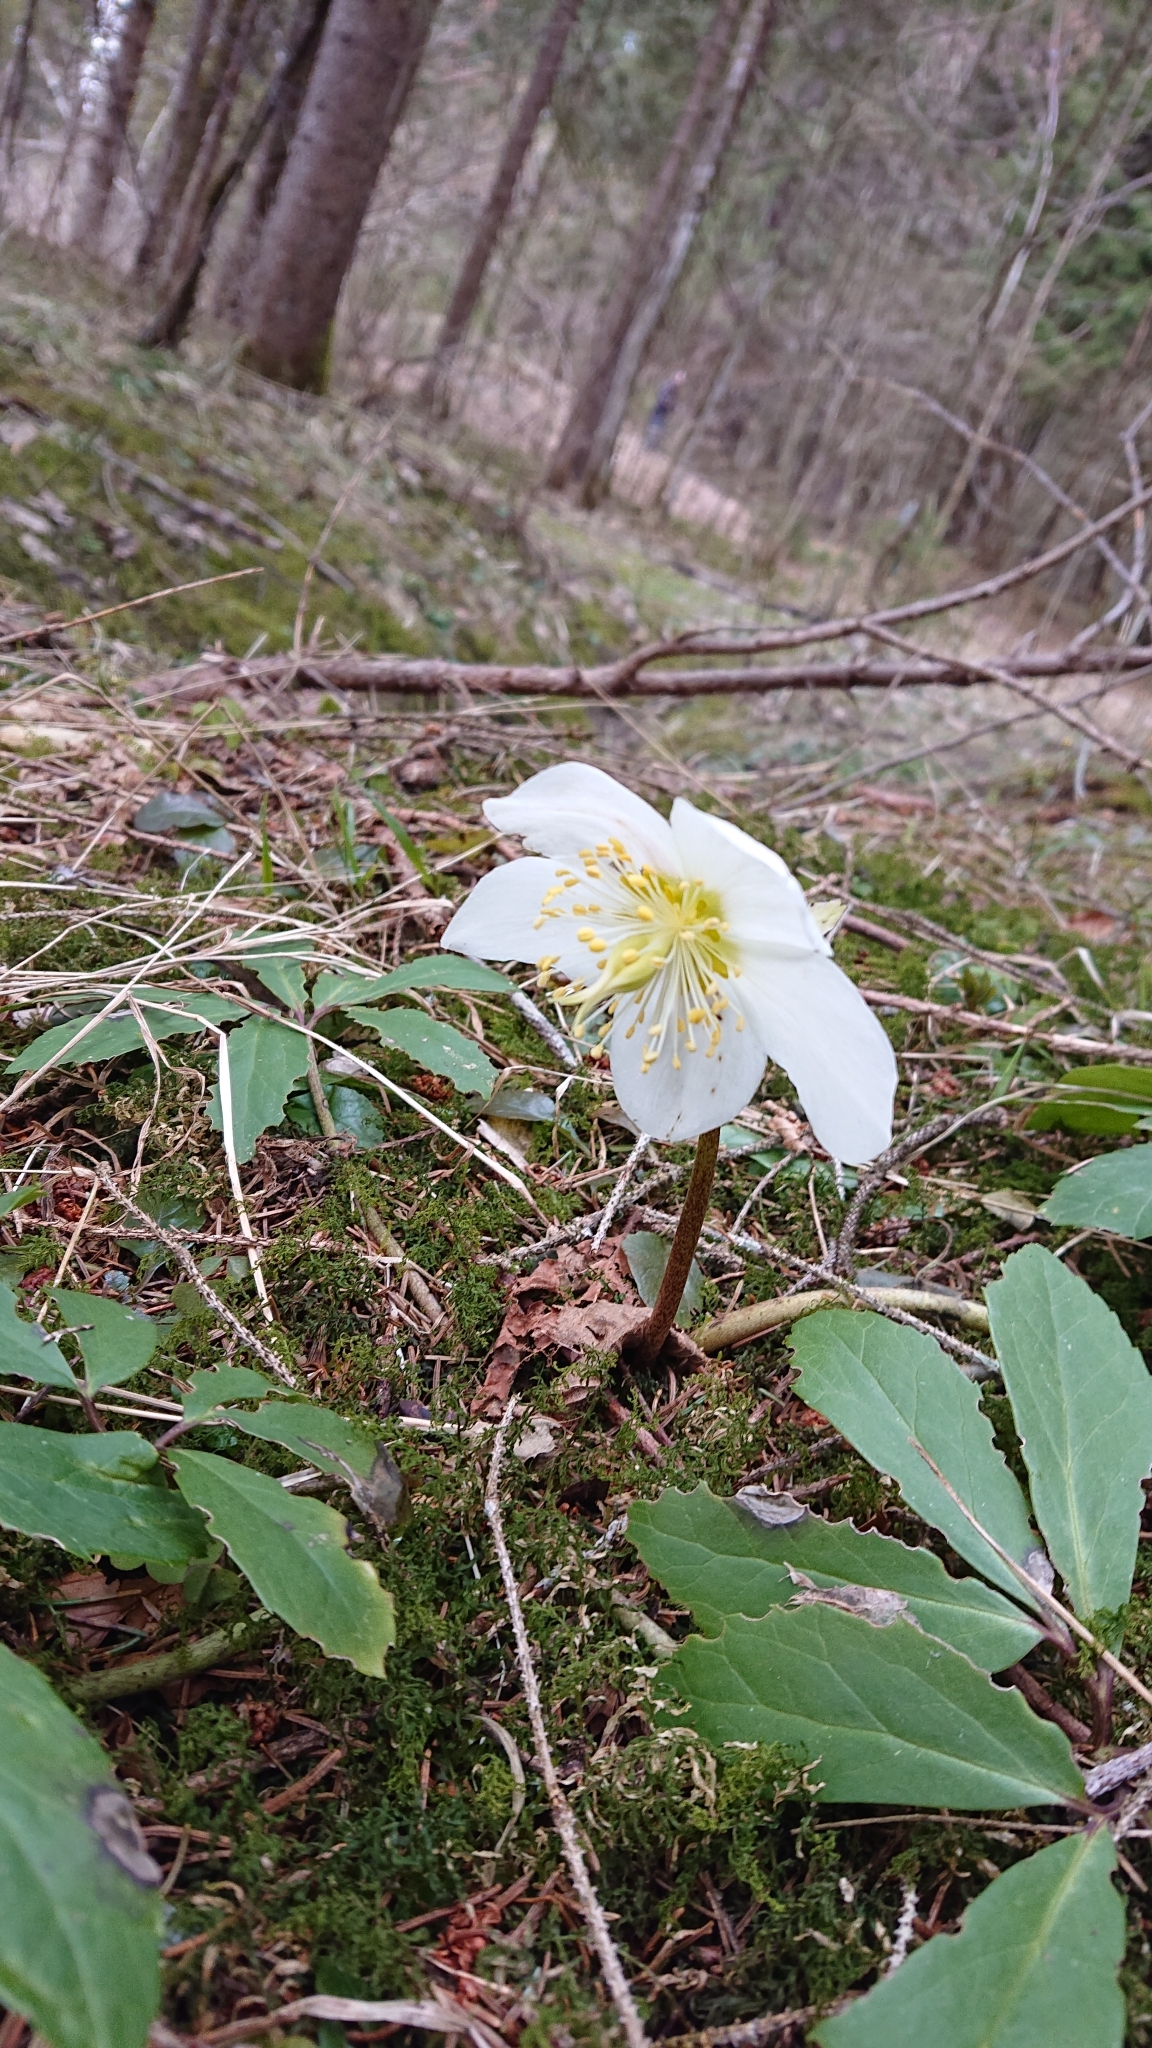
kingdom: Plantae
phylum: Tracheophyta
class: Magnoliopsida
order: Ranunculales
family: Ranunculaceae
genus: Helleborus
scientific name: Helleborus niger
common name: Black hellebore
